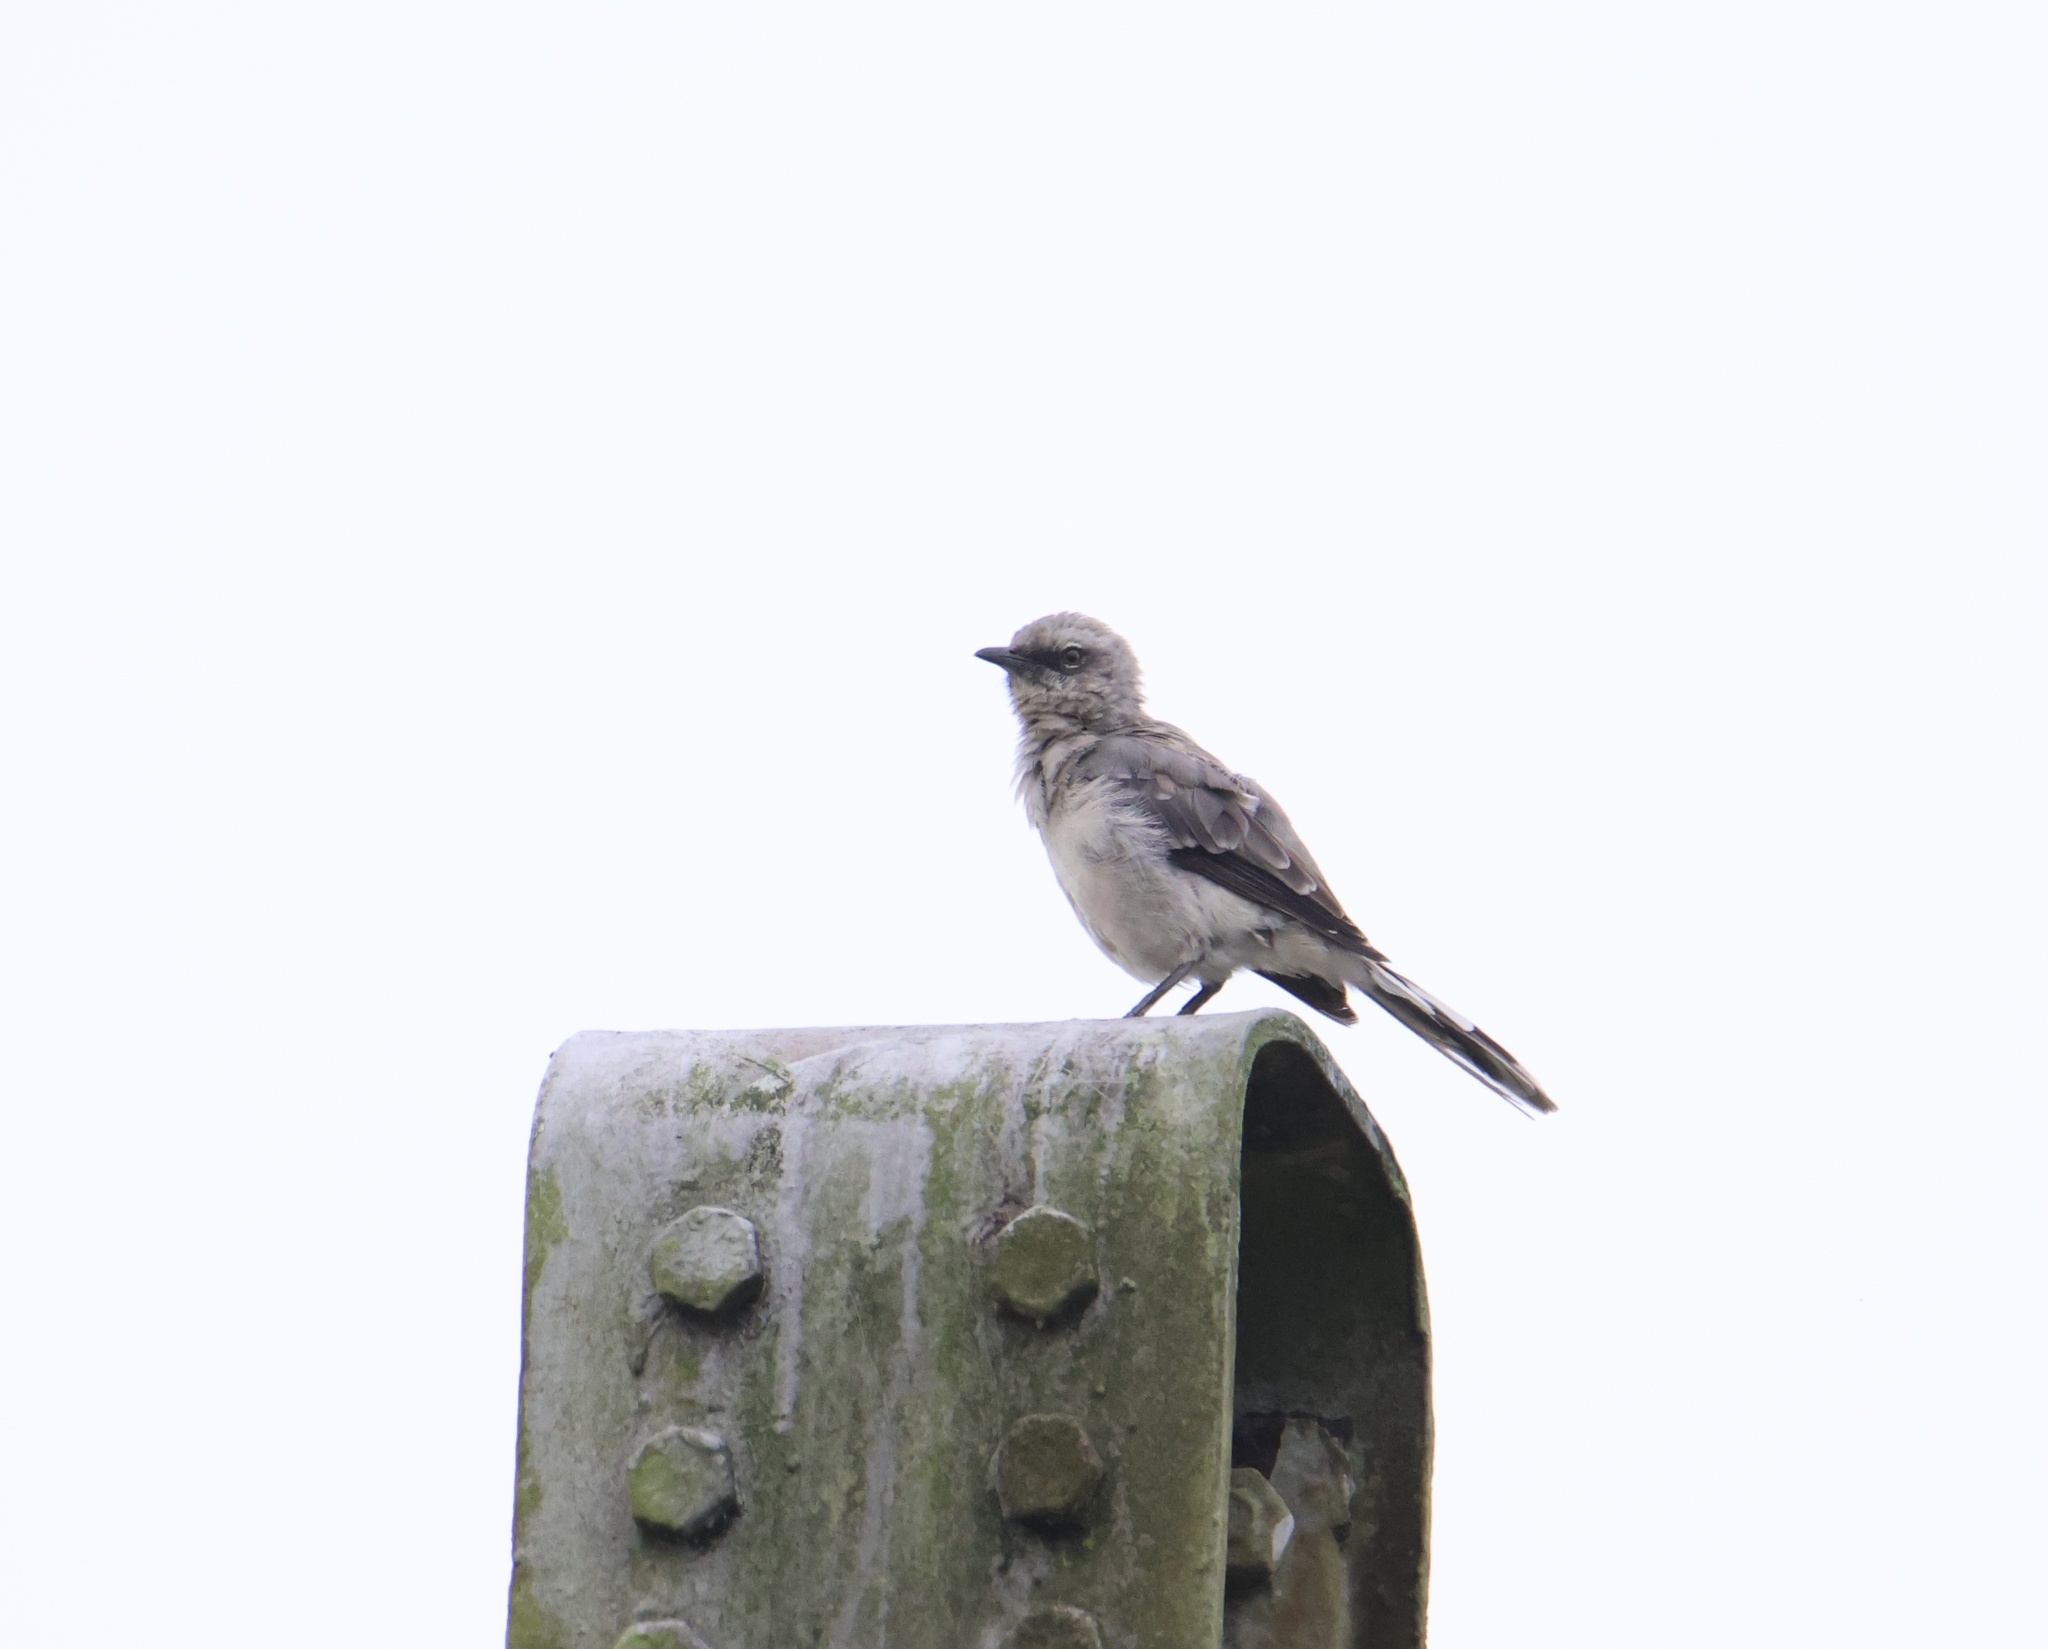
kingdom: Animalia
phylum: Chordata
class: Aves
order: Passeriformes
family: Mimidae
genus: Mimus
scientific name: Mimus gilvus
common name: Tropical mockingbird
